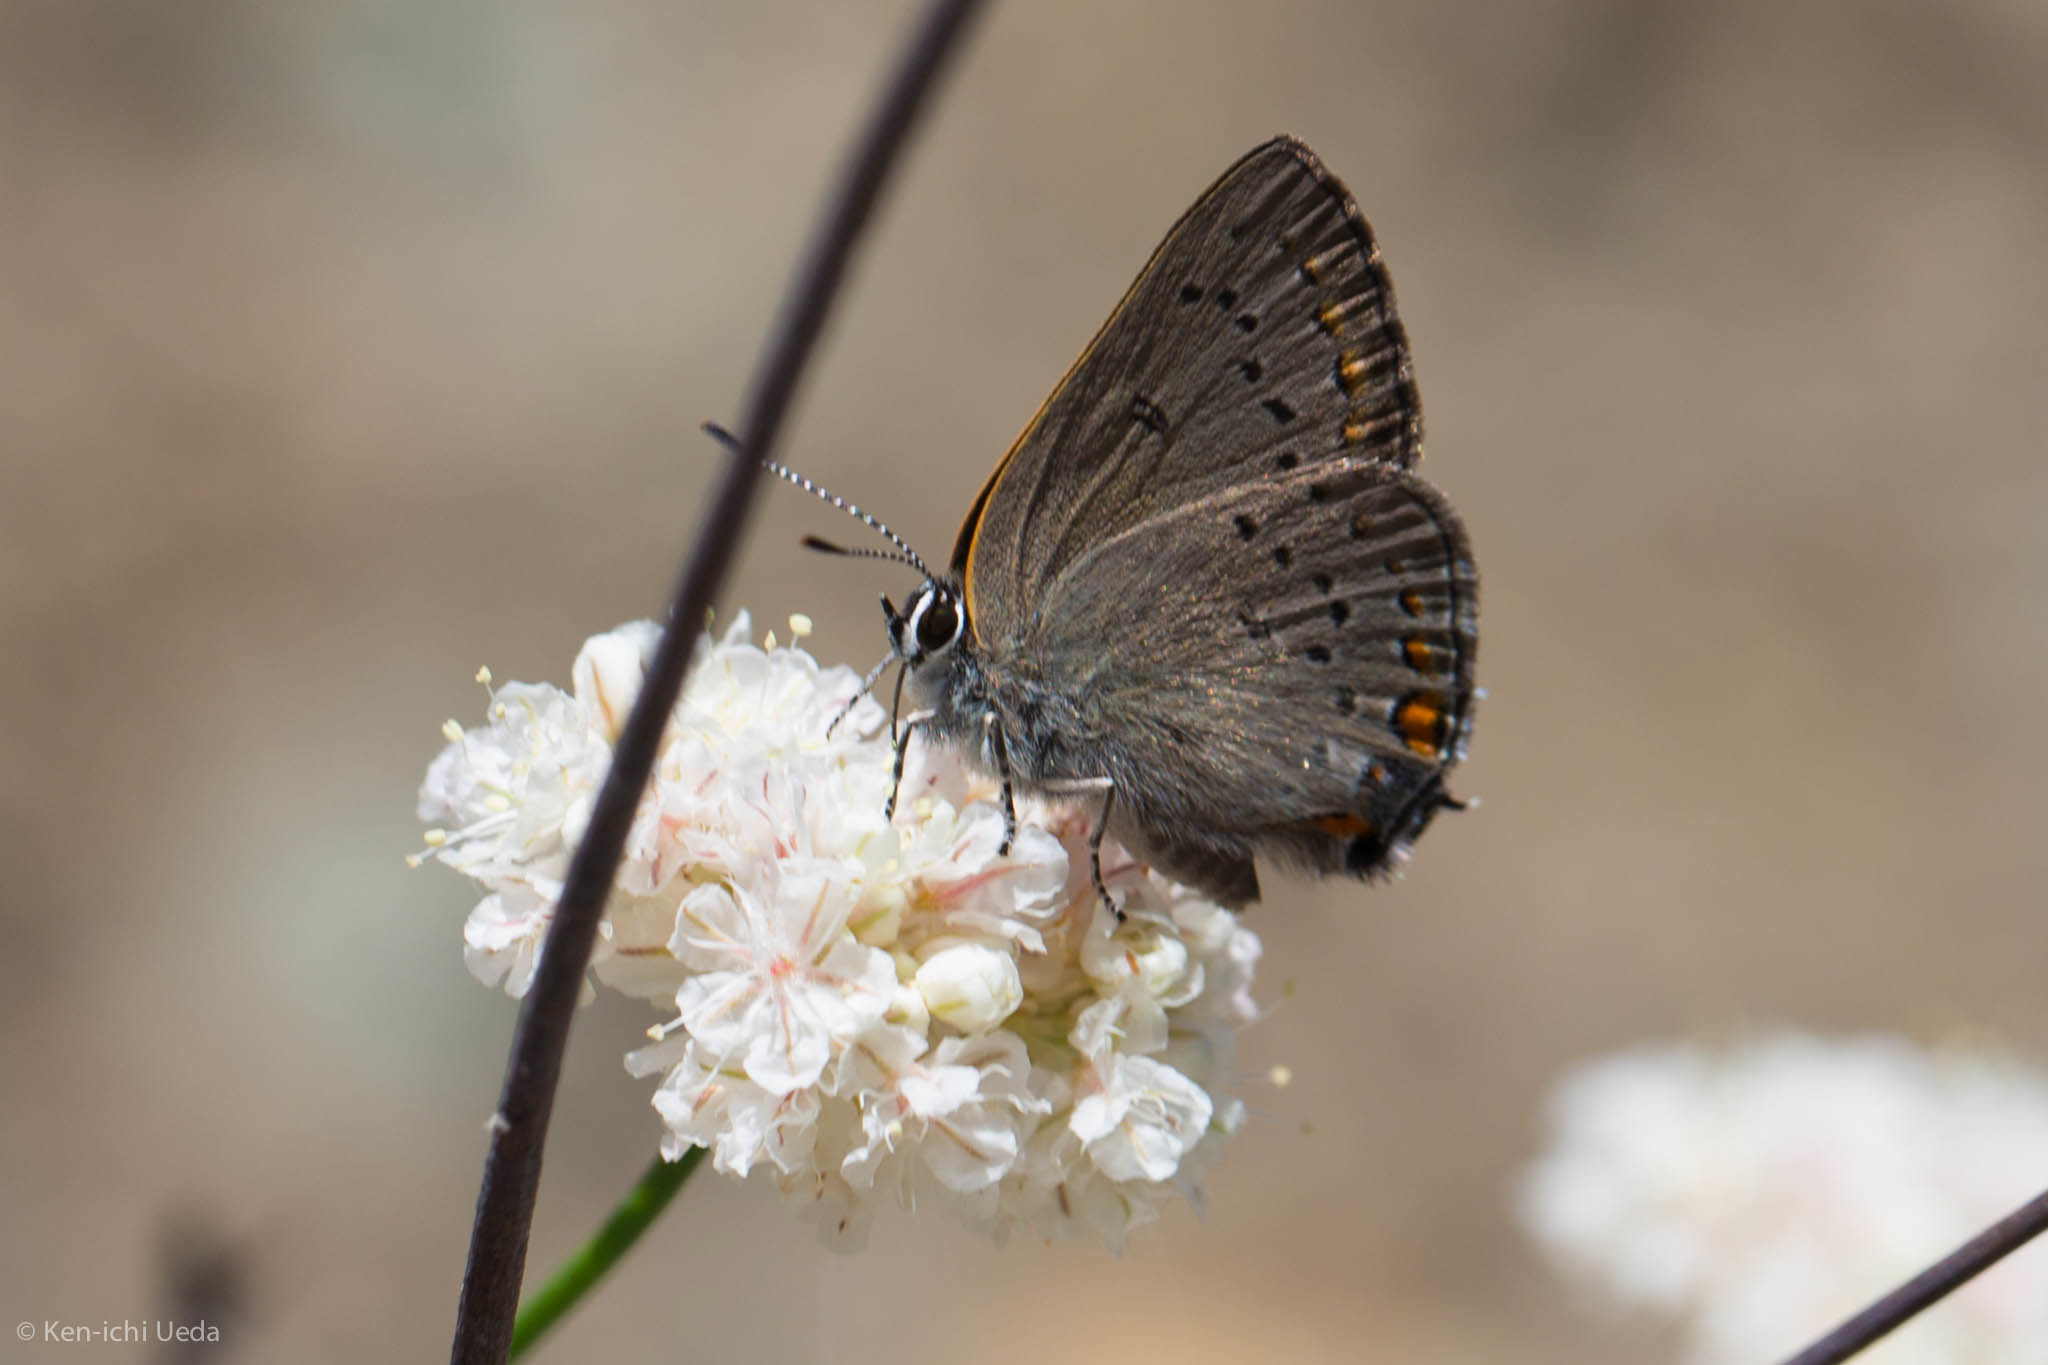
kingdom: Animalia
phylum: Arthropoda
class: Insecta
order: Lepidoptera
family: Lycaenidae
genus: Strymon
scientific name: Strymon acadica
